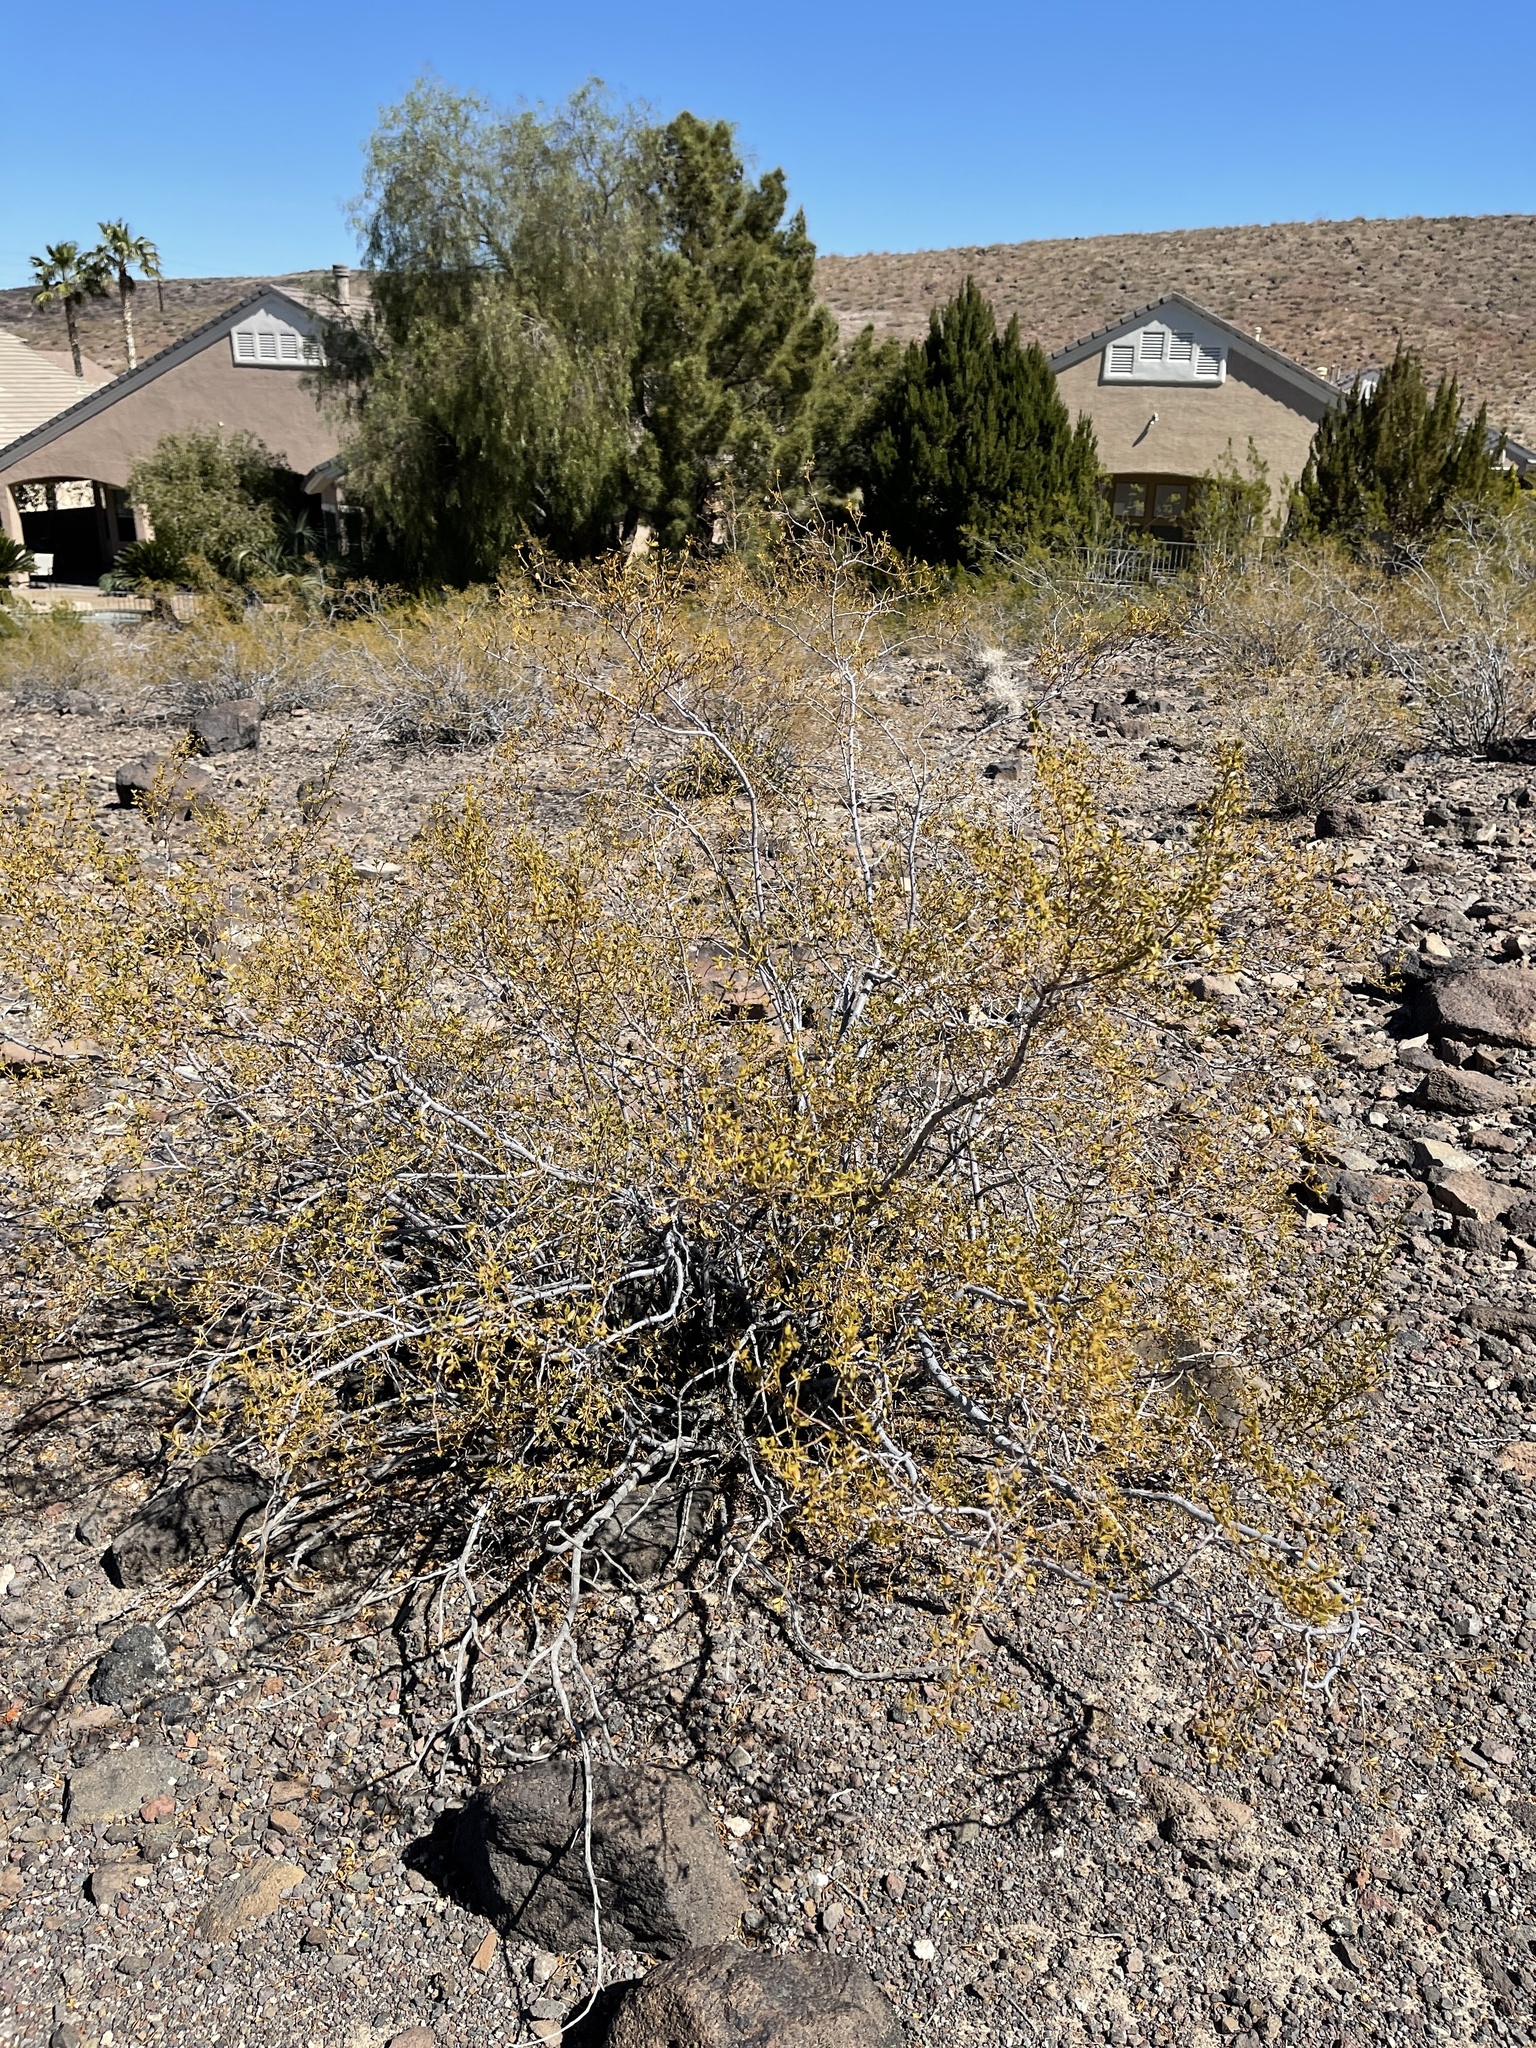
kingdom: Plantae
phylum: Tracheophyta
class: Magnoliopsida
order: Zygophyllales
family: Zygophyllaceae
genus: Larrea
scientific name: Larrea tridentata
